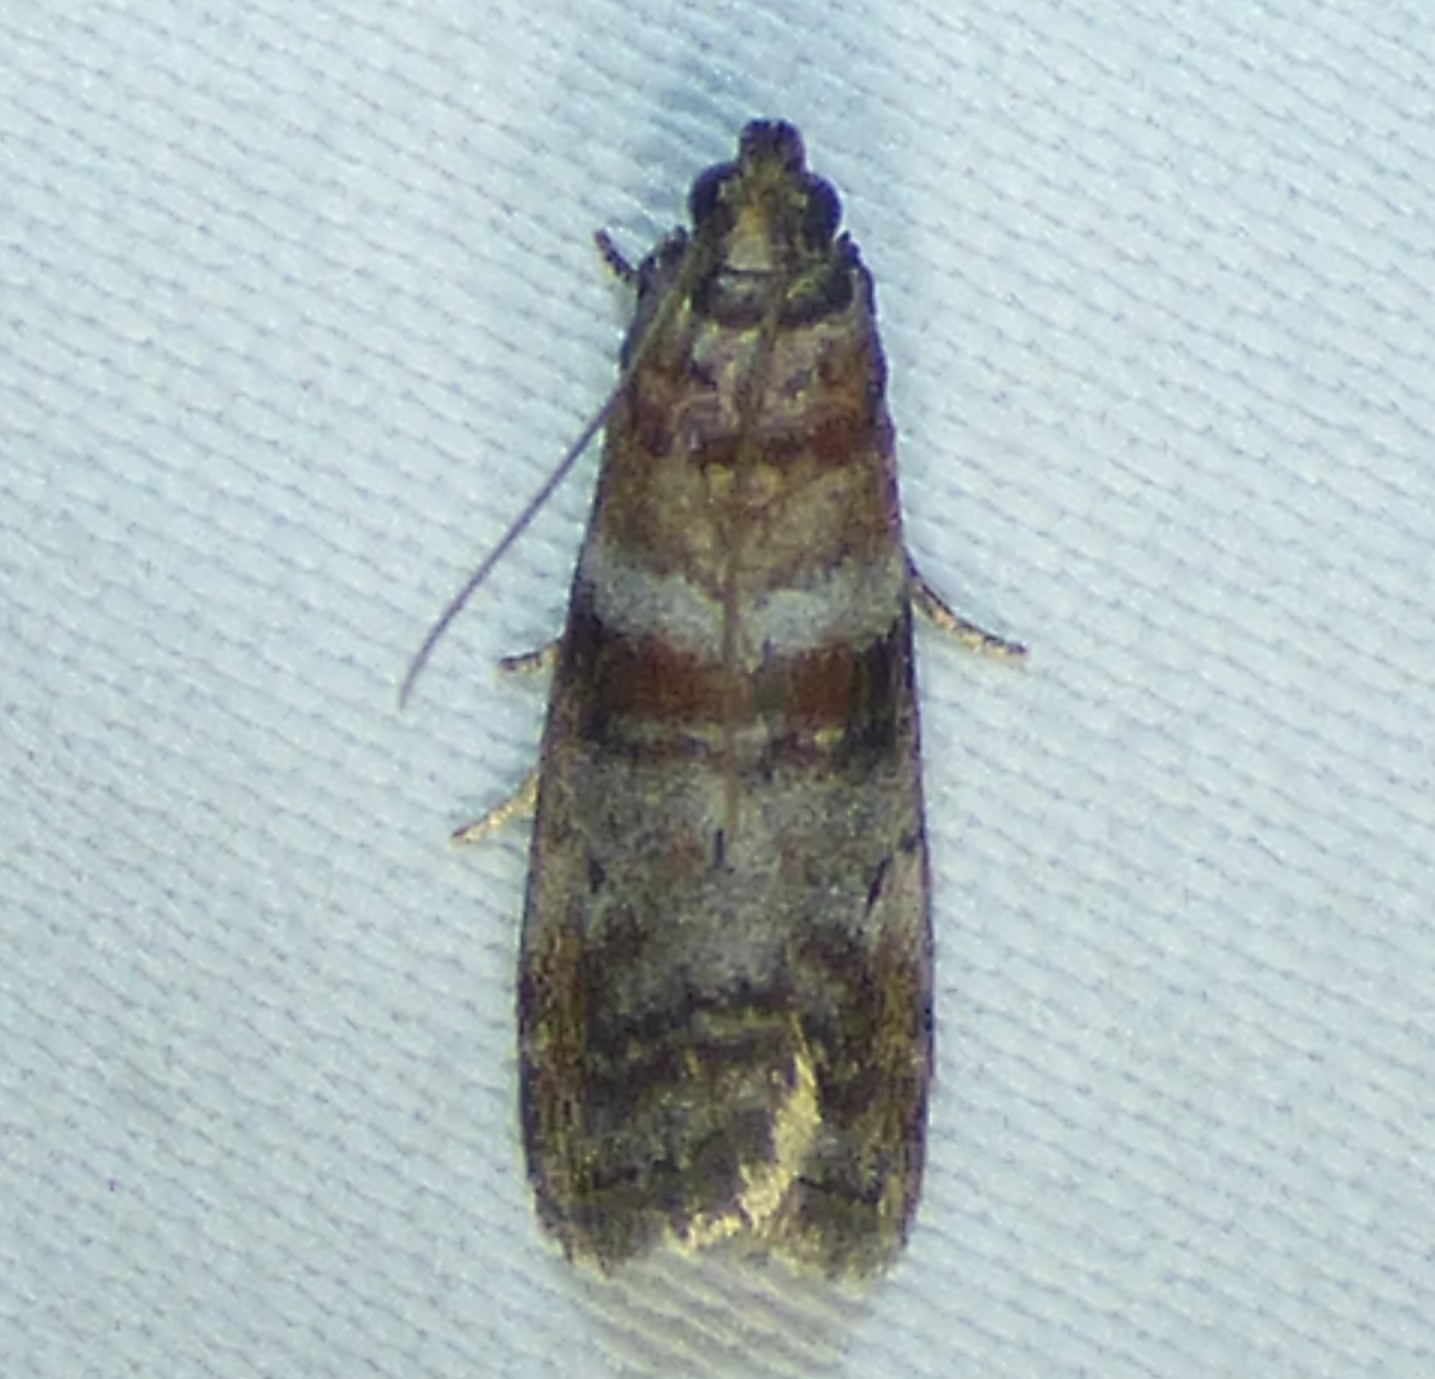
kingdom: Animalia
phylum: Arthropoda
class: Insecta
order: Lepidoptera
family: Pyralidae
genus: Sciota
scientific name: Sciota uvinella
